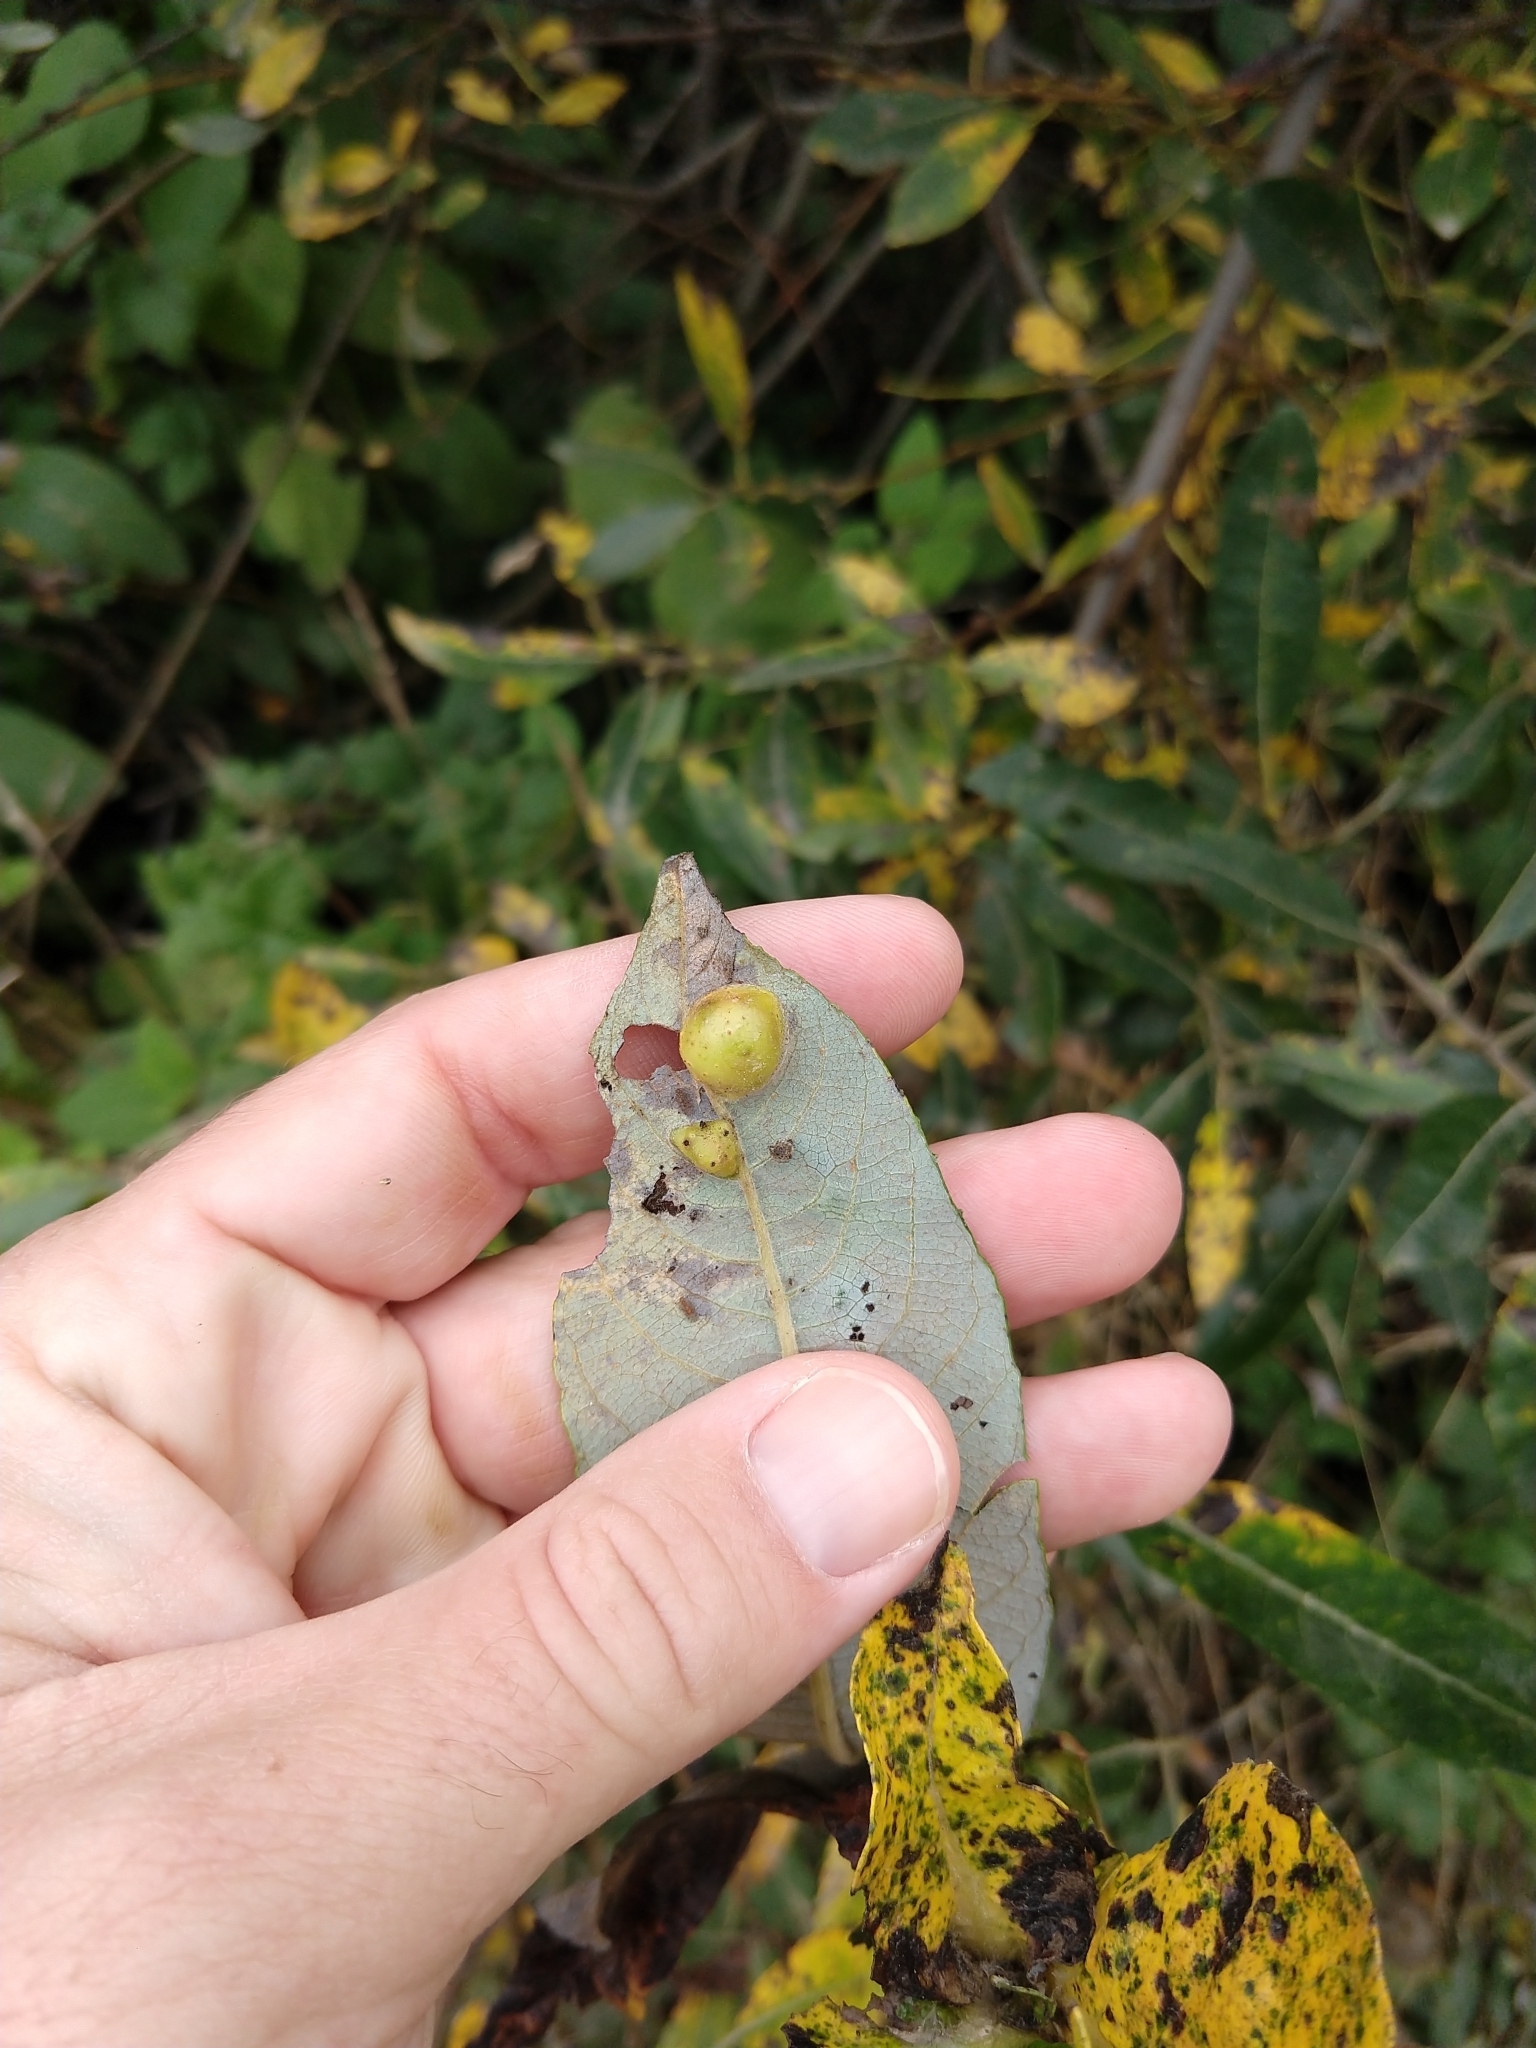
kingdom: Animalia
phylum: Arthropoda
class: Insecta
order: Hymenoptera
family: Tenthredinidae
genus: Euura
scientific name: Euura
